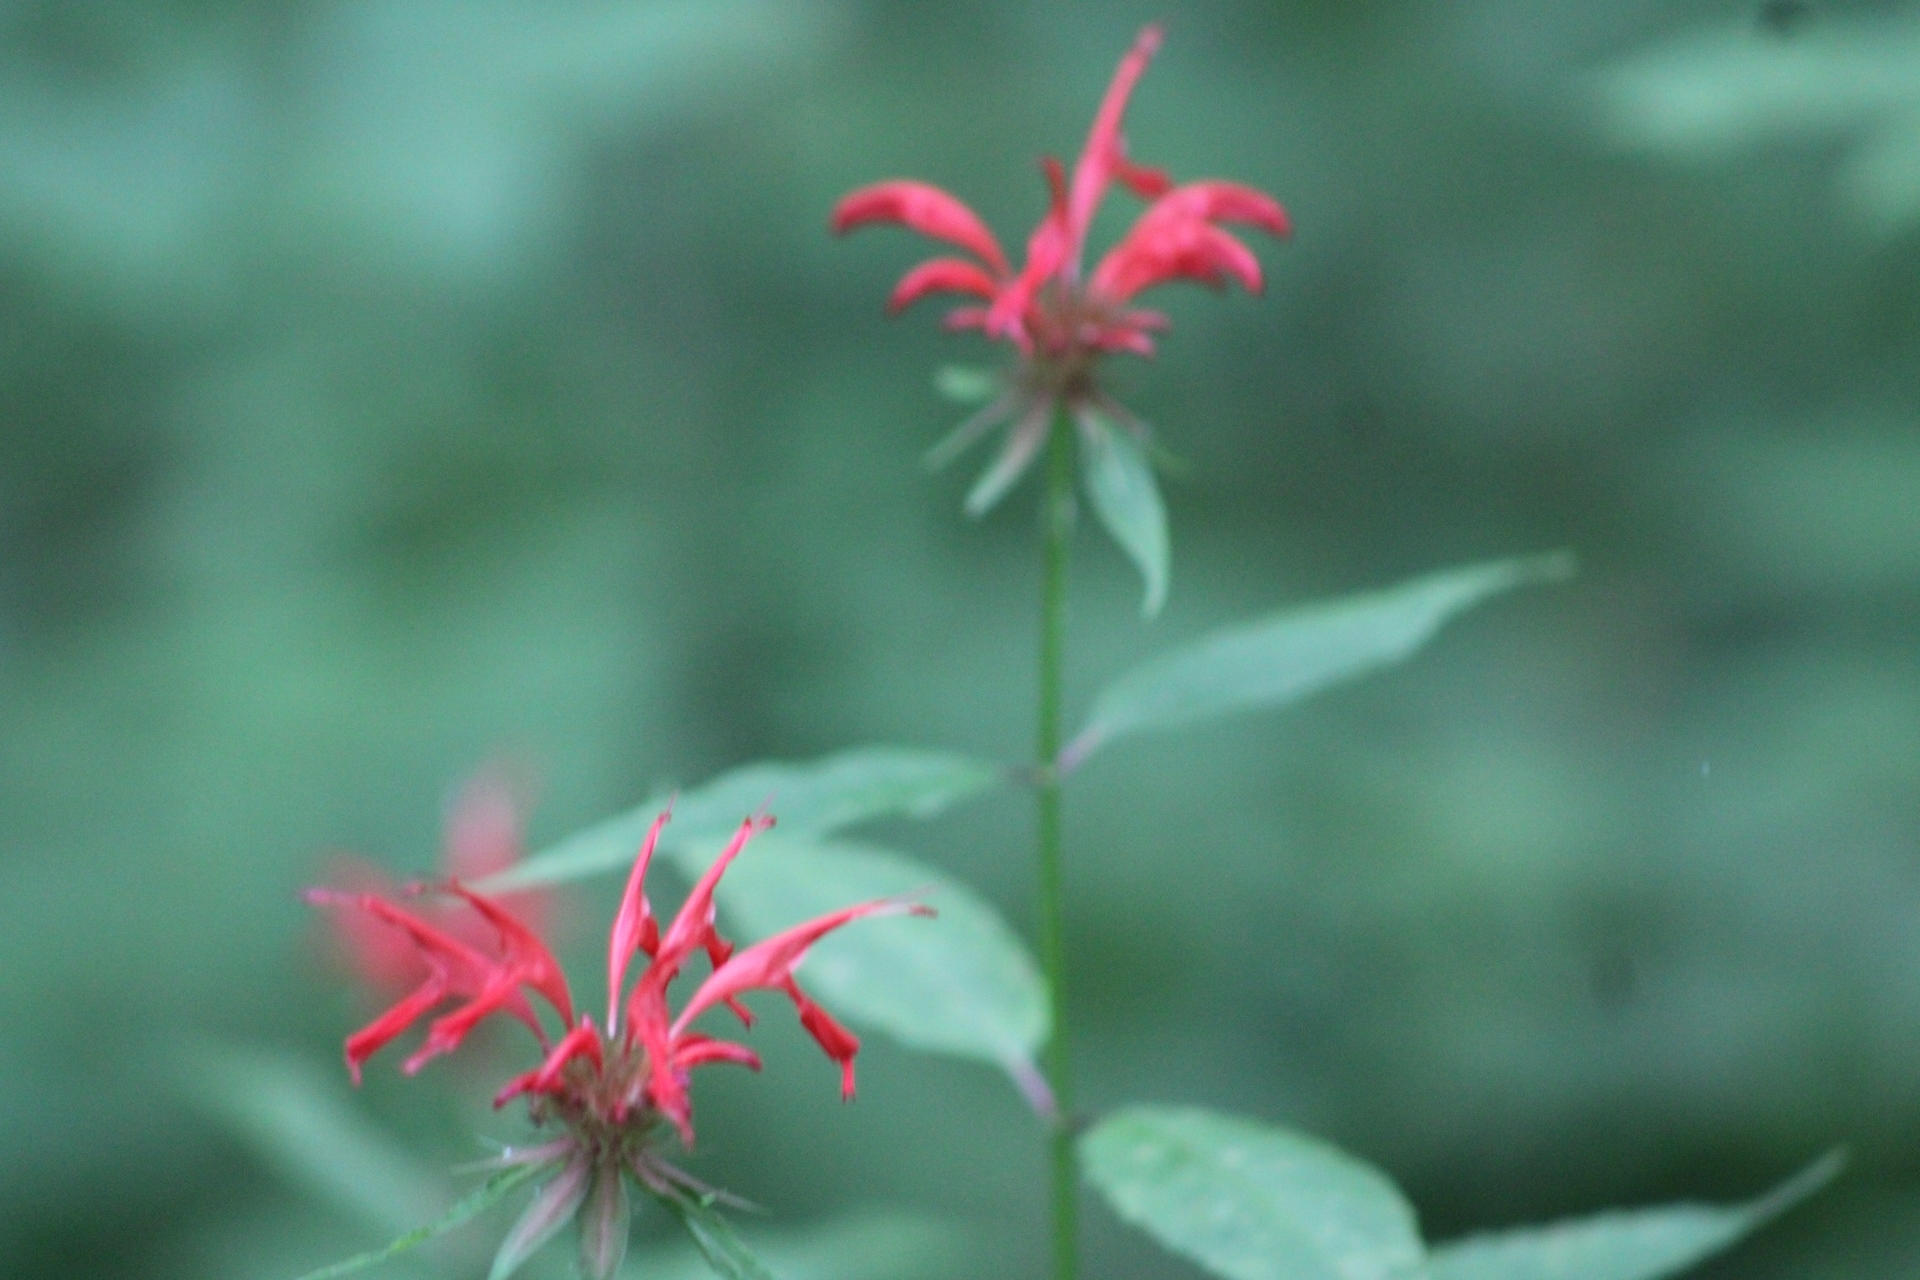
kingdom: Plantae
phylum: Tracheophyta
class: Magnoliopsida
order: Lamiales
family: Lamiaceae
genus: Monarda
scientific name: Monarda didyma
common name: Beebalm
